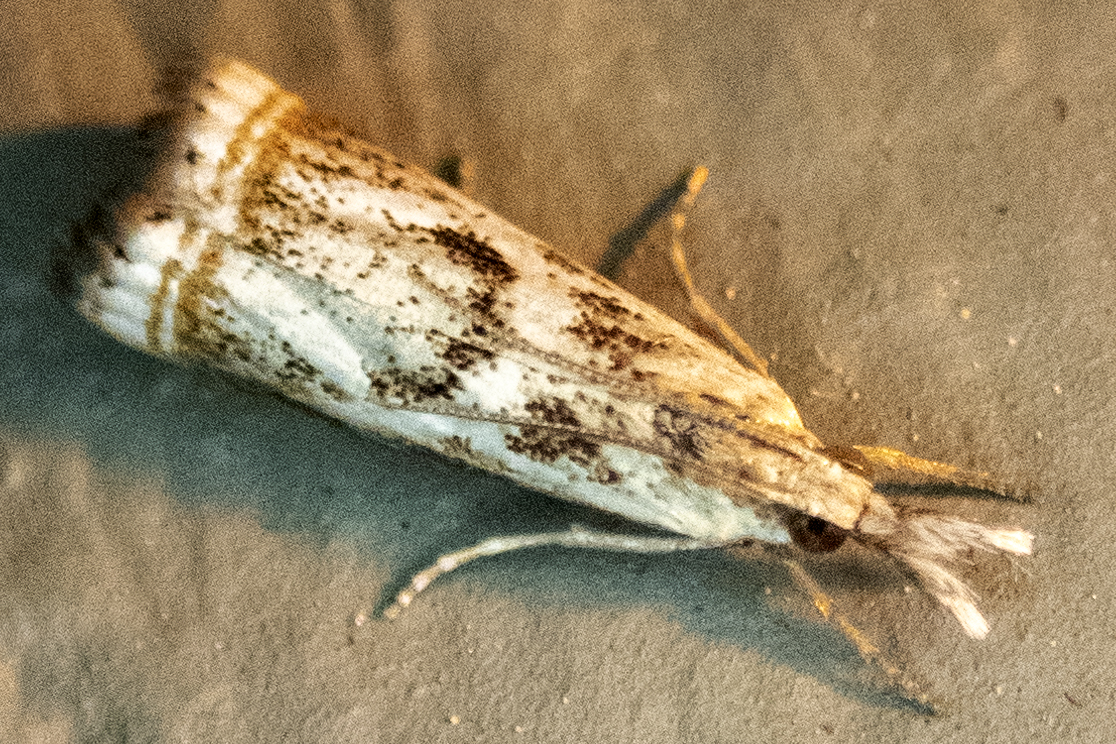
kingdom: Animalia
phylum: Arthropoda
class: Insecta
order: Lepidoptera
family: Crambidae
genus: Microcrambus
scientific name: Microcrambus elegans
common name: Elegant grass-veneer
